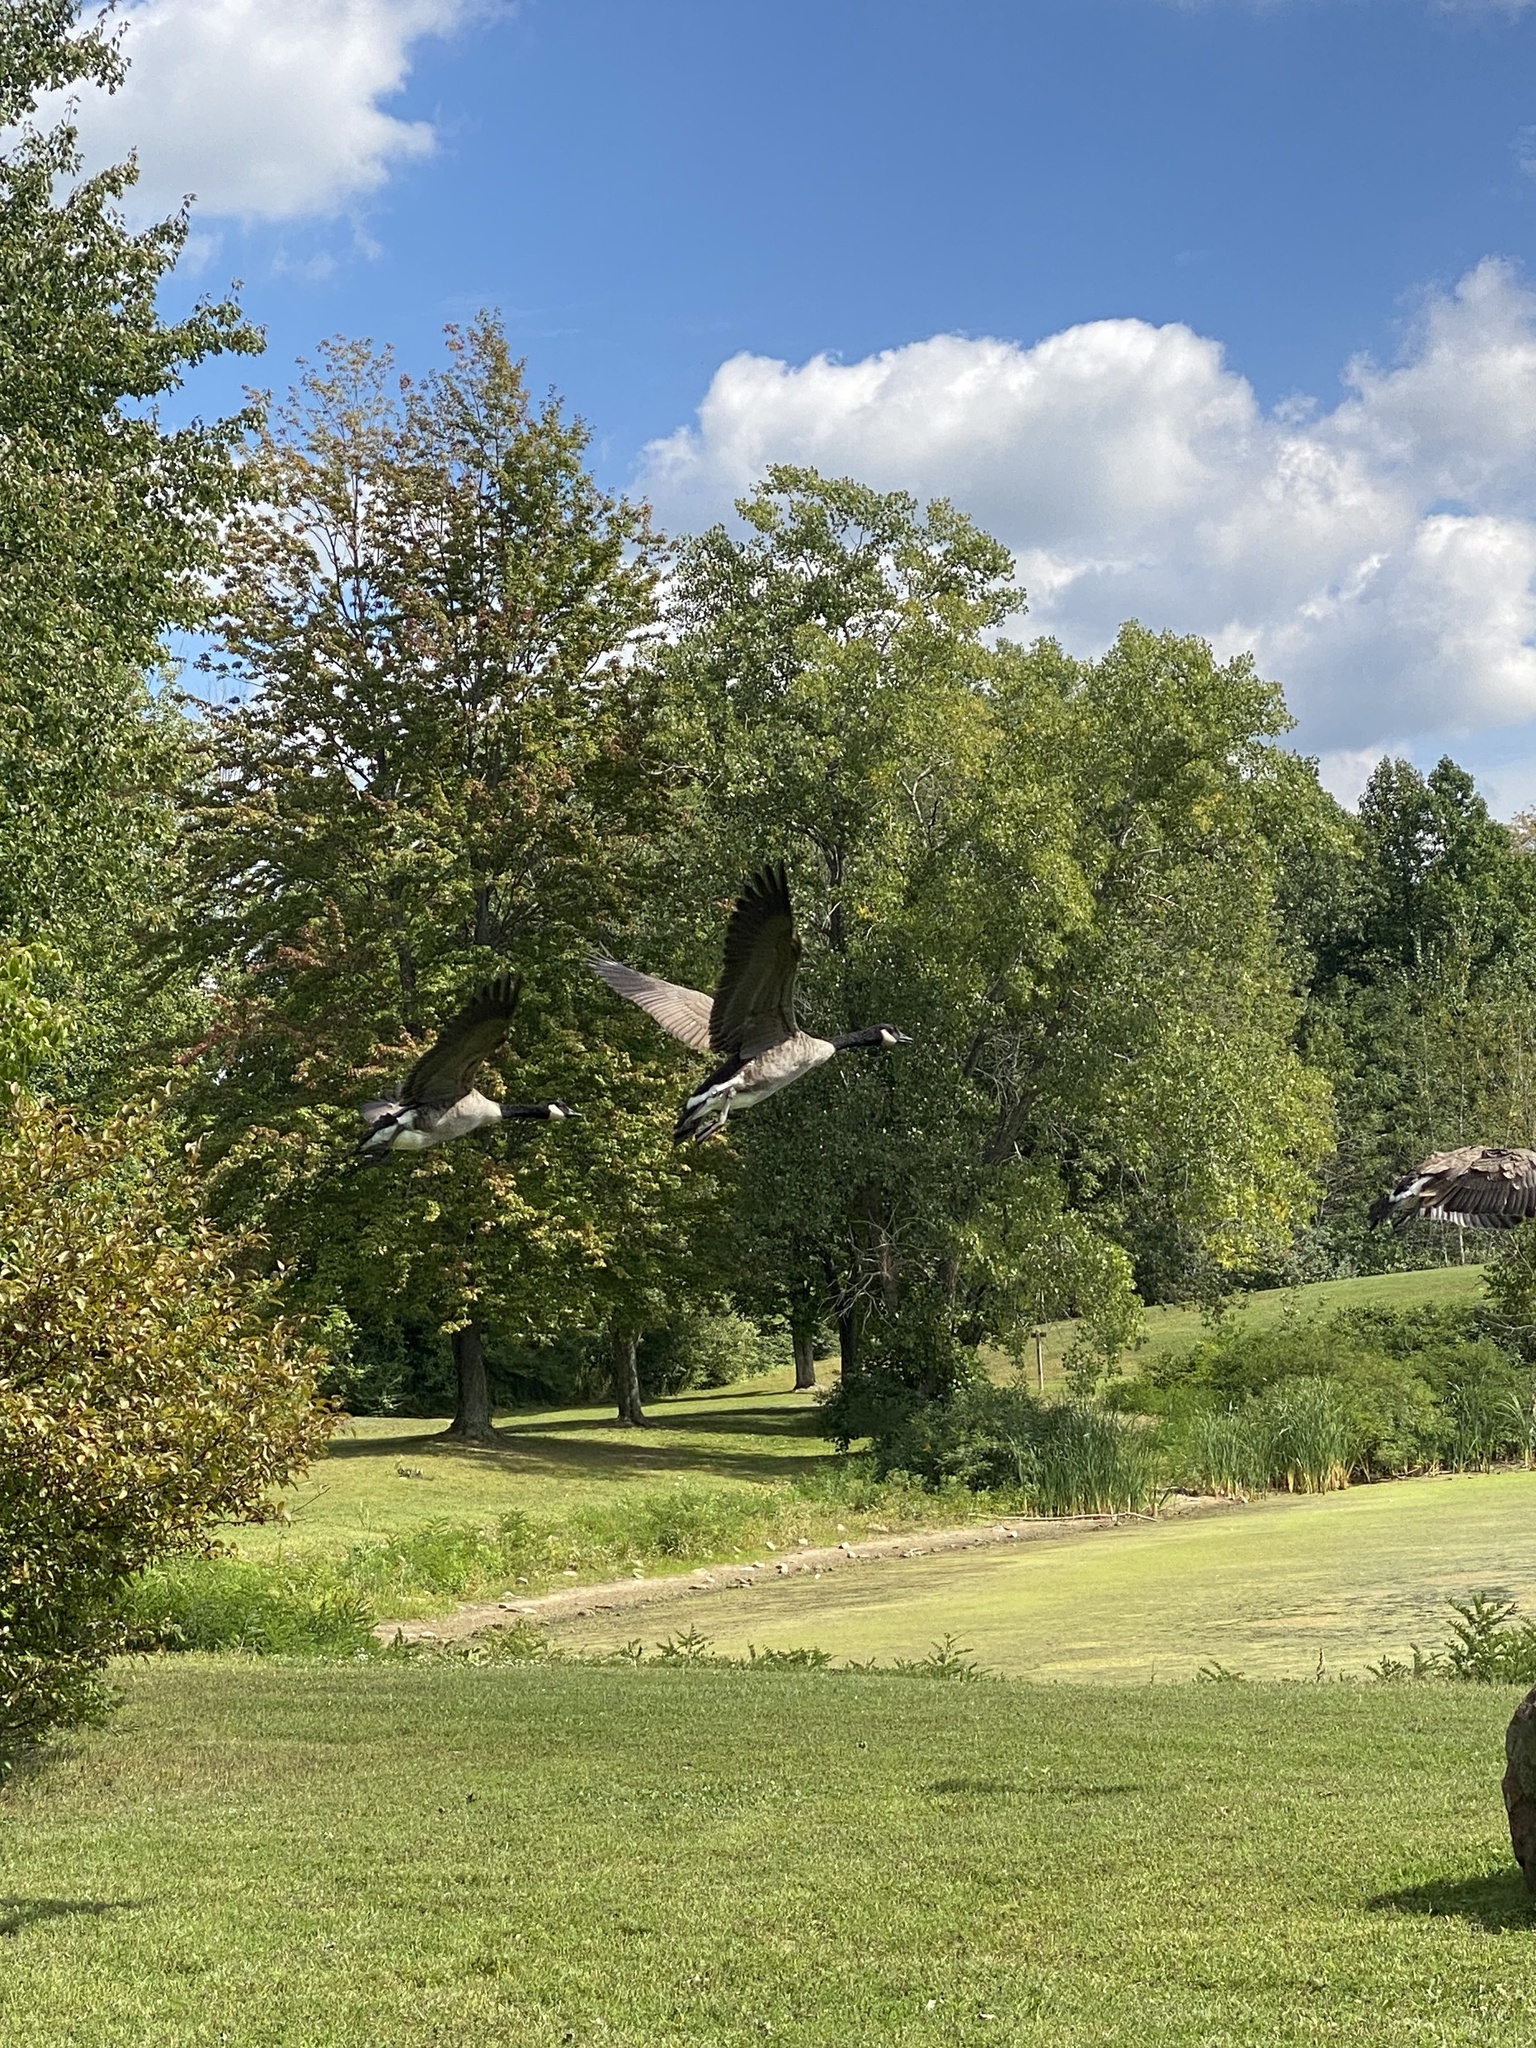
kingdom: Animalia
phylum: Chordata
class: Aves
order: Anseriformes
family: Anatidae
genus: Branta
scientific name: Branta canadensis
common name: Canada goose
